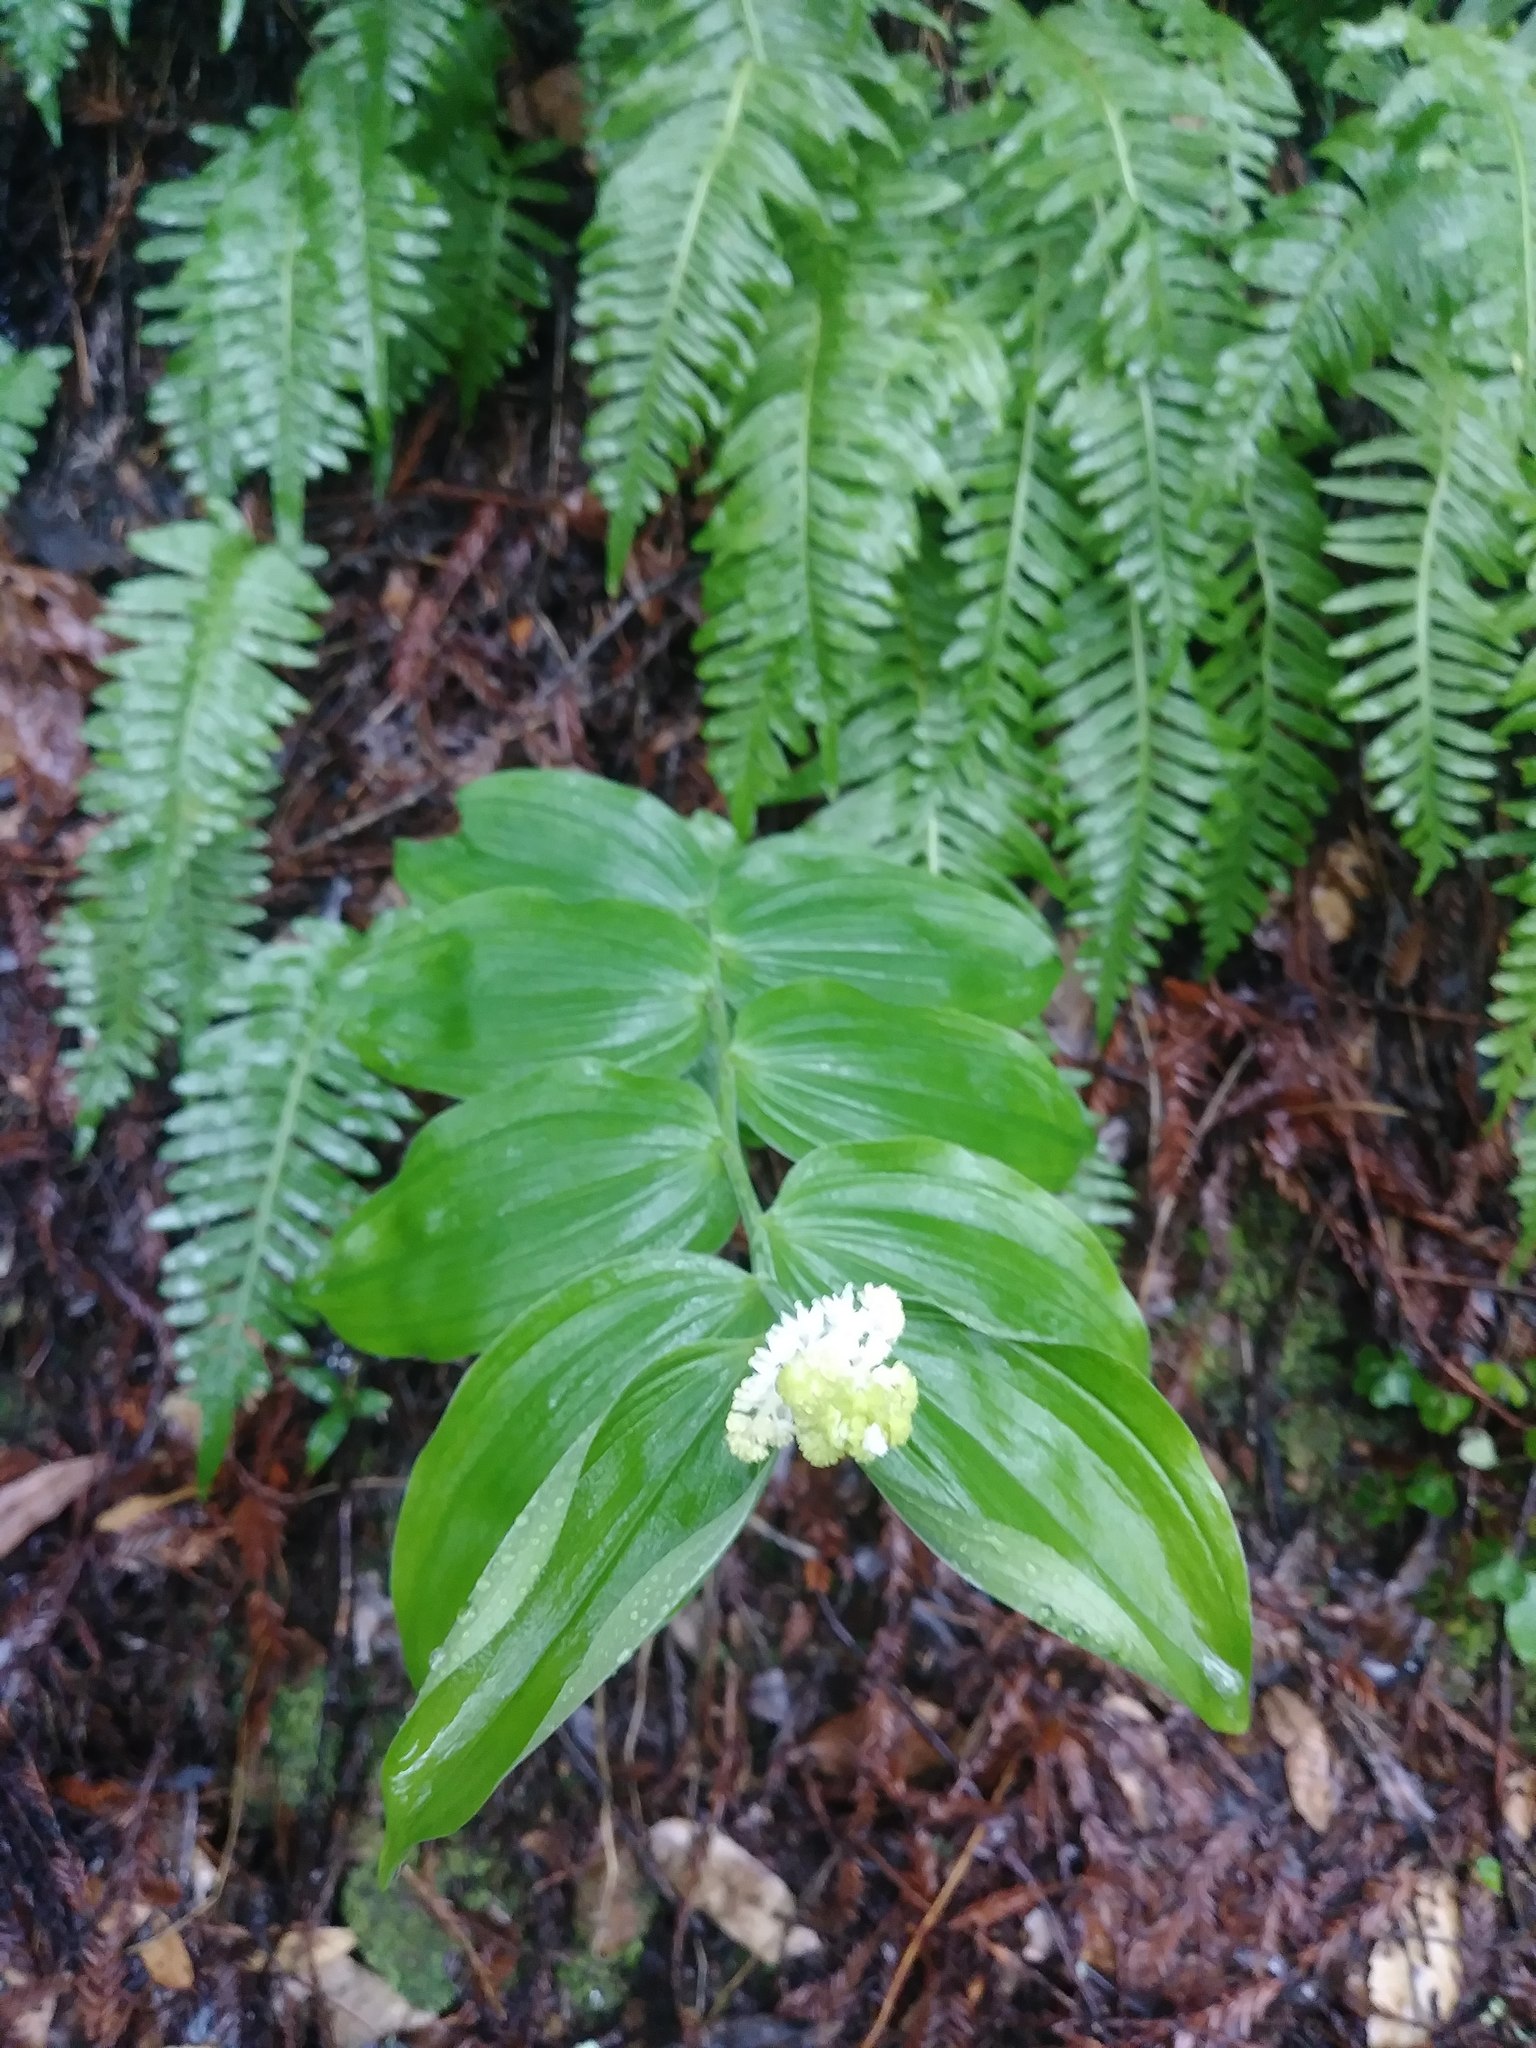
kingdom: Plantae
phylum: Tracheophyta
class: Liliopsida
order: Asparagales
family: Asparagaceae
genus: Maianthemum
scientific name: Maianthemum racemosum
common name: False spikenard
